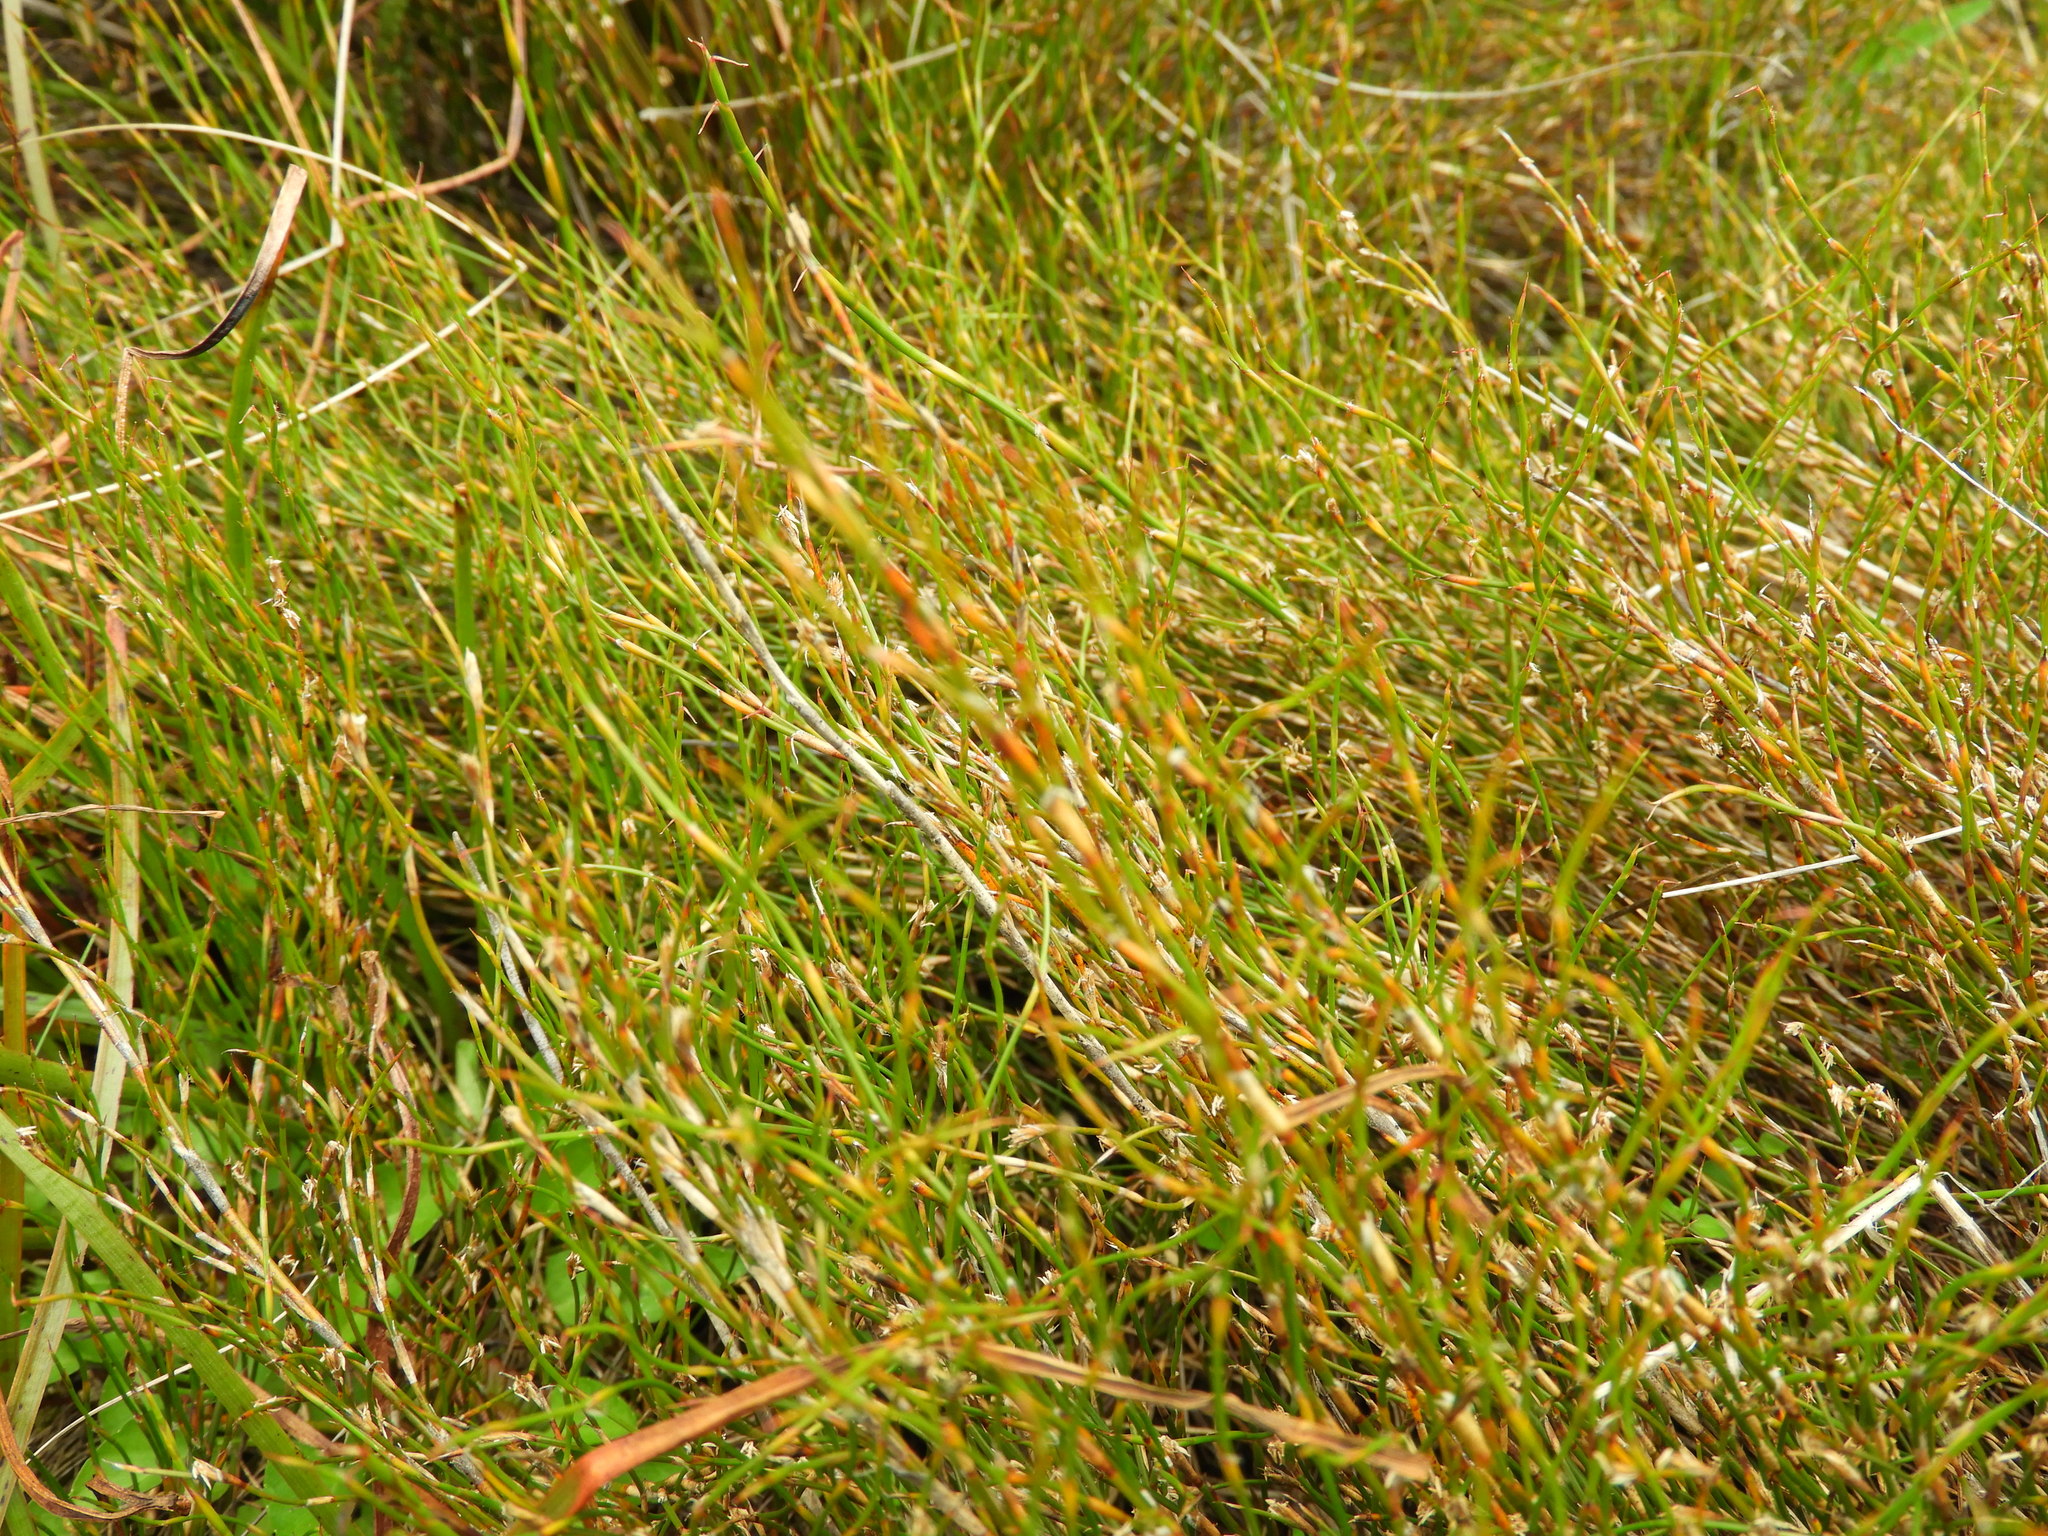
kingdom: Plantae
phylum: Tracheophyta
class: Liliopsida
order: Poales
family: Restionaceae
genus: Empodisma
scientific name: Empodisma minus
